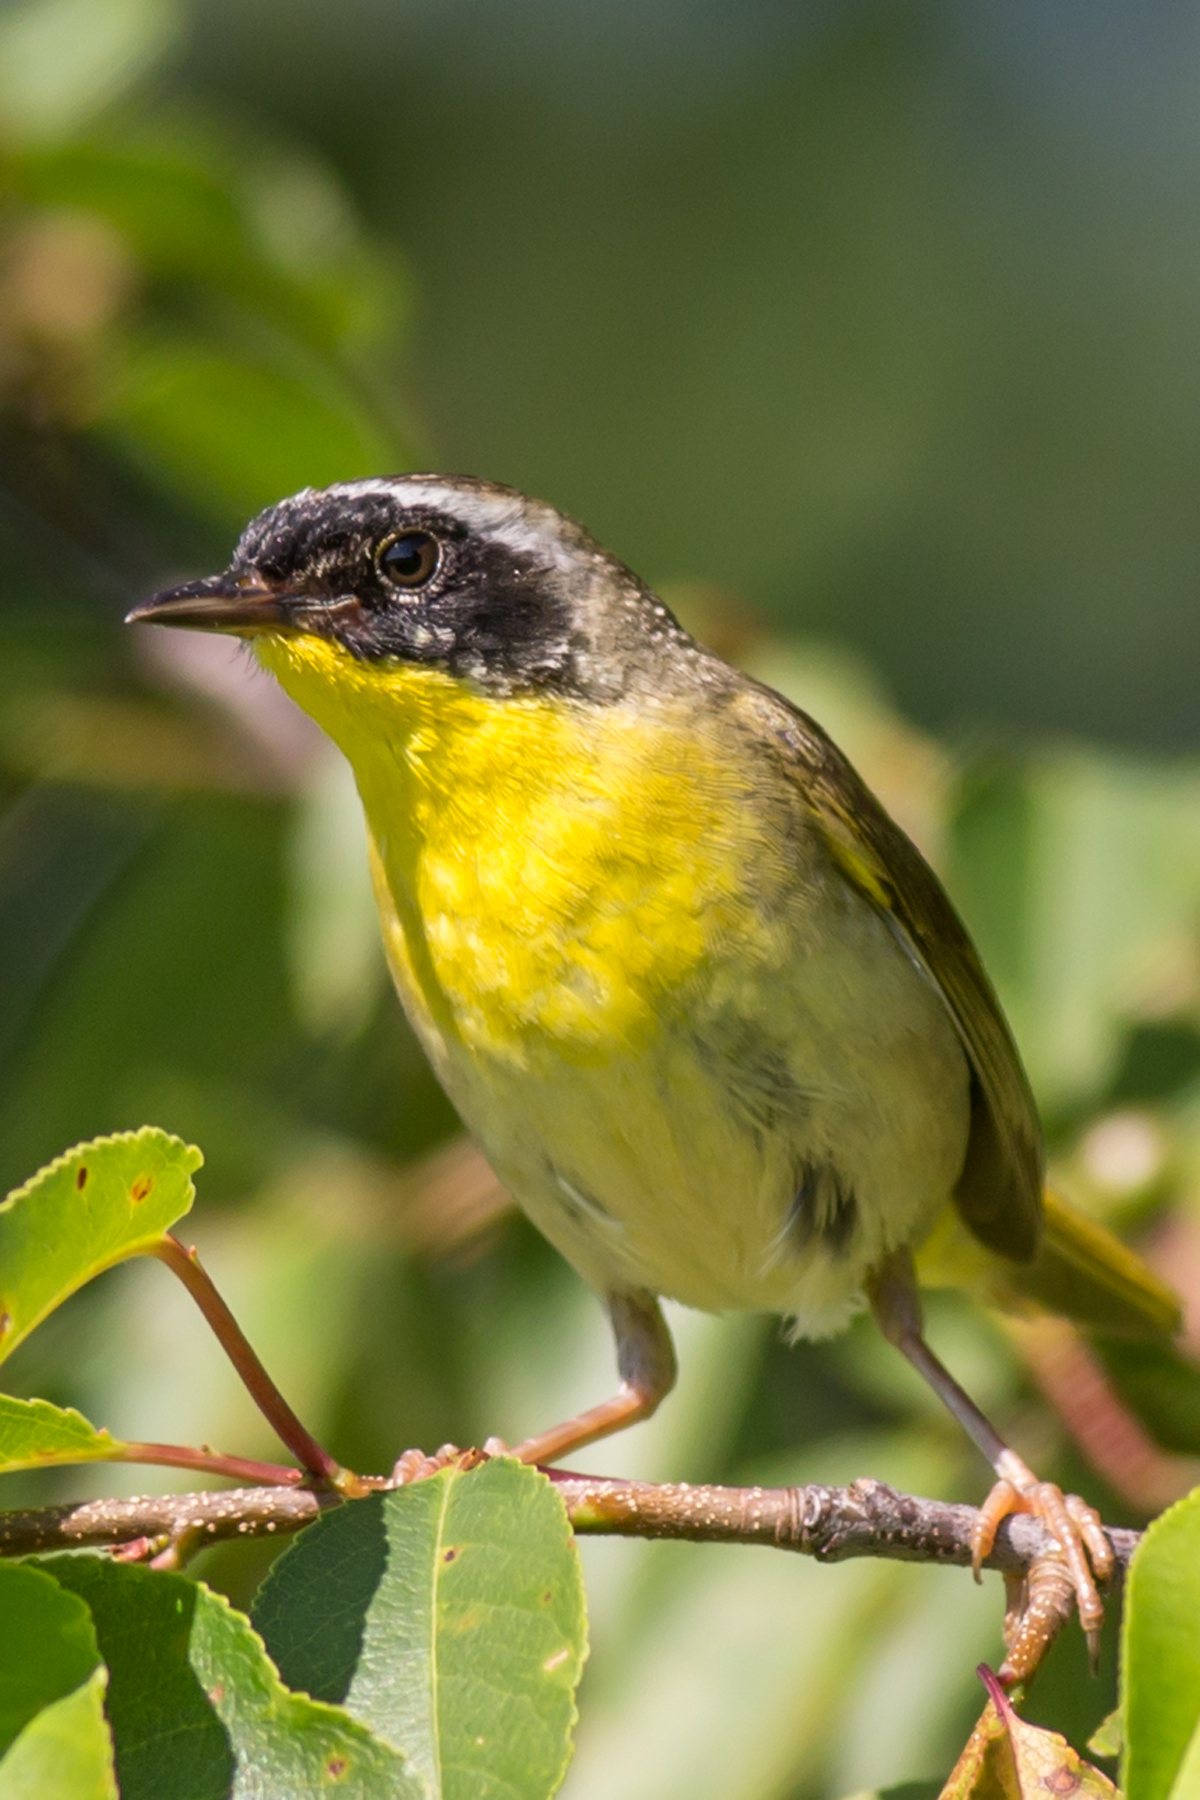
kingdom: Animalia
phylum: Chordata
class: Aves
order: Passeriformes
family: Parulidae
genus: Geothlypis
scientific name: Geothlypis trichas
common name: Common yellowthroat
